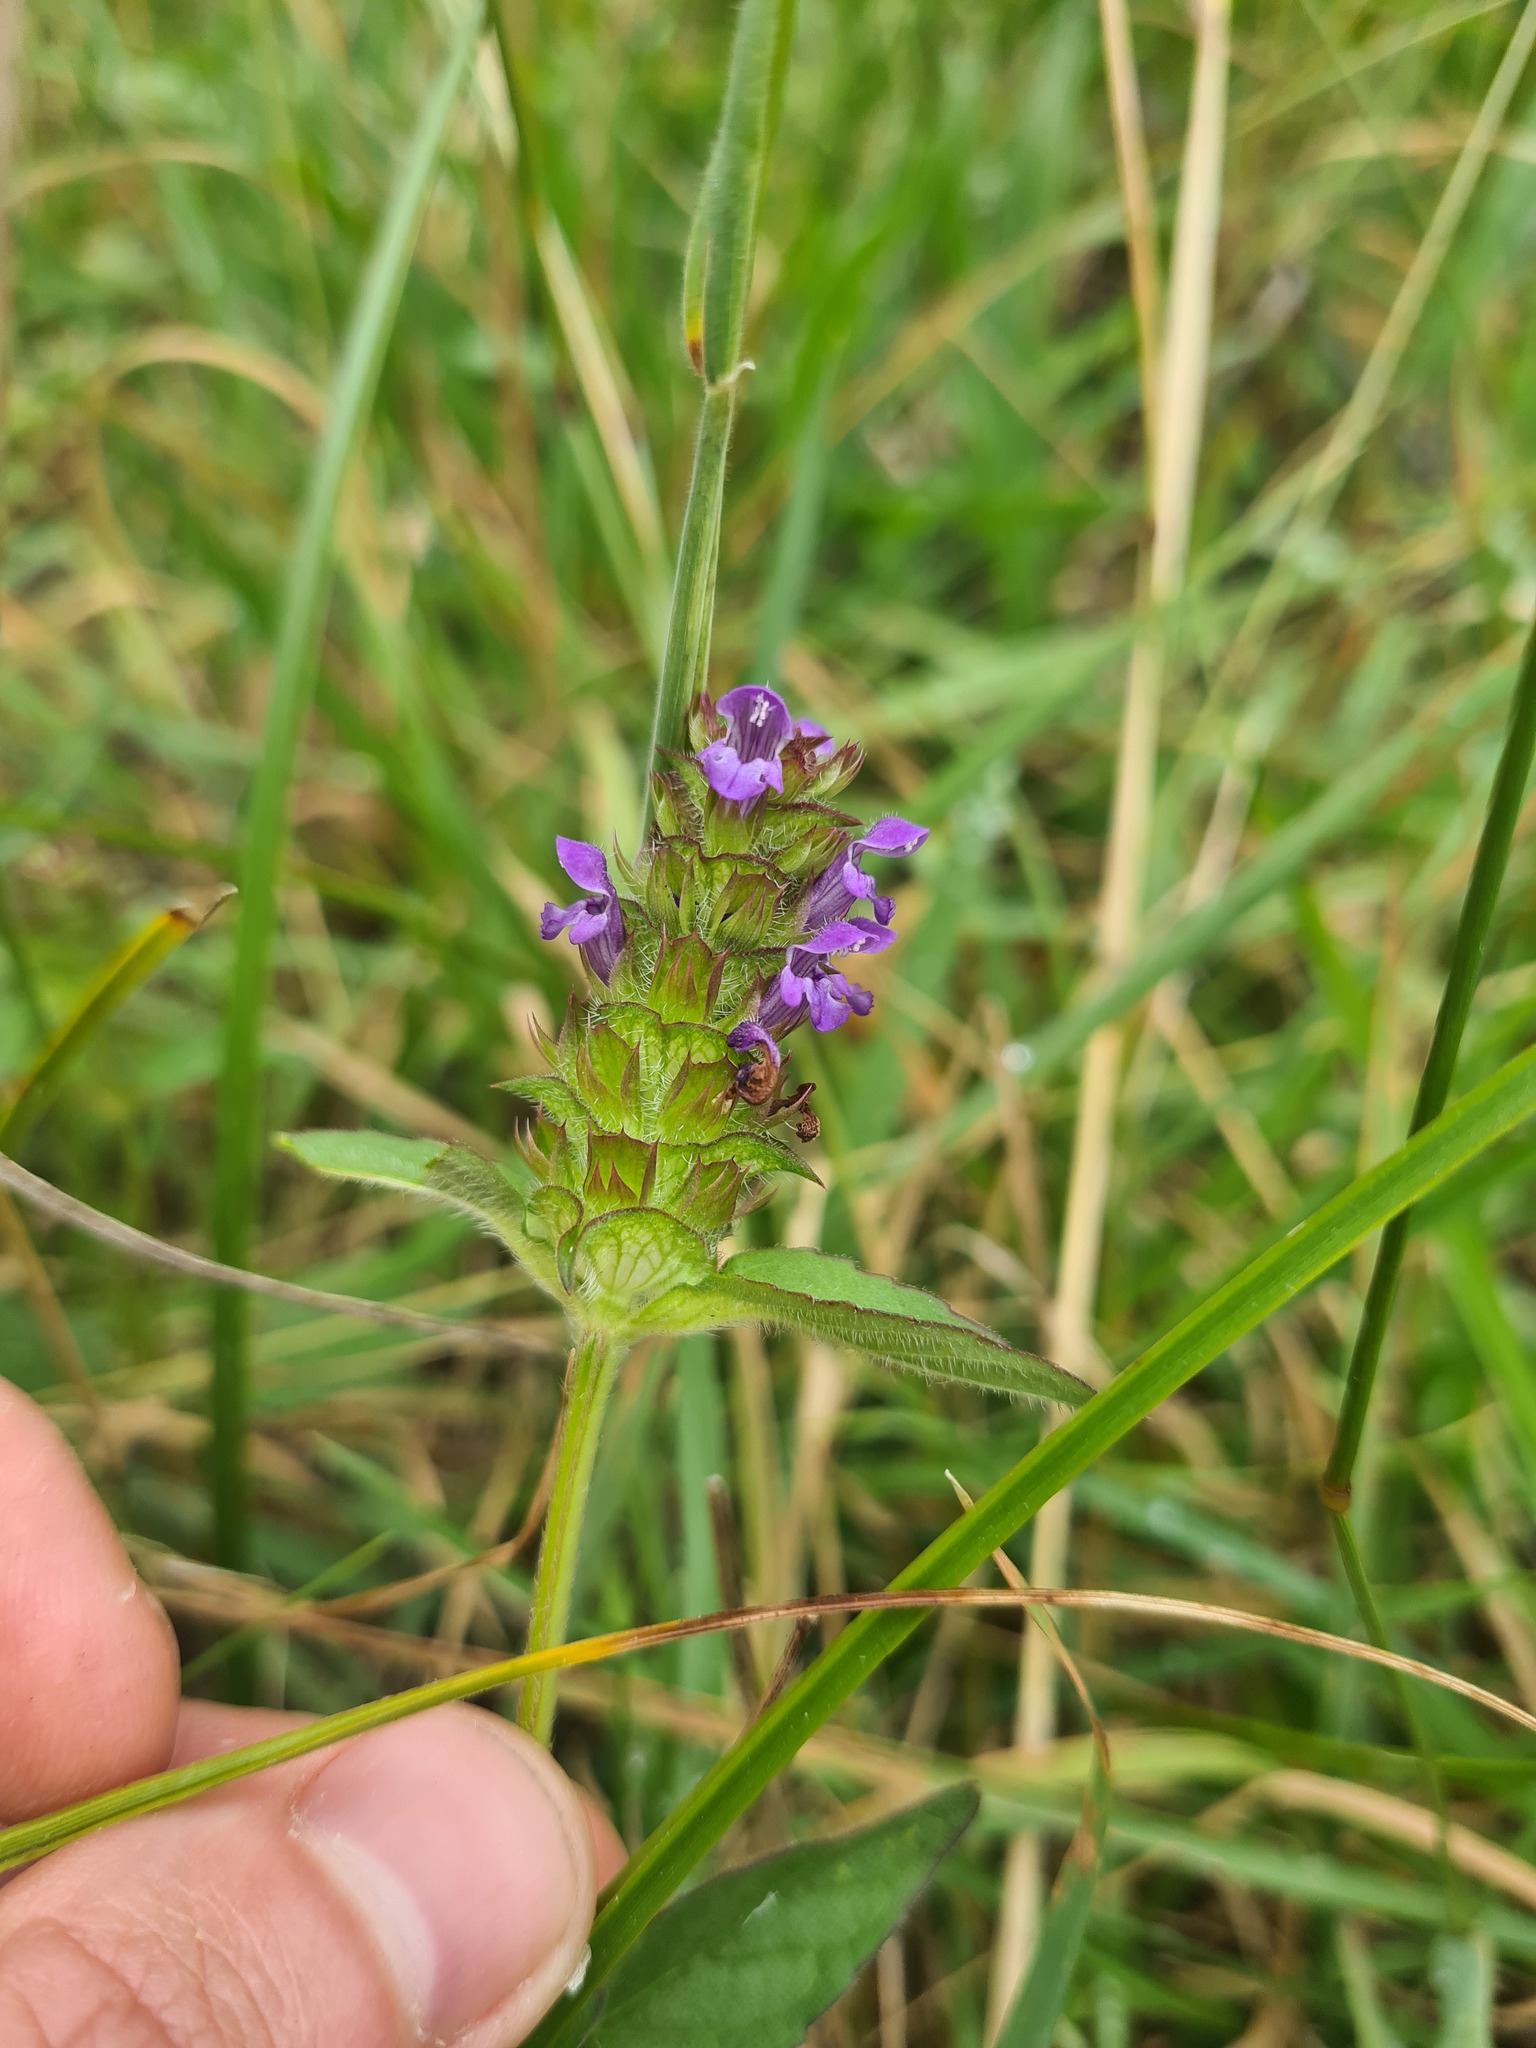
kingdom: Plantae
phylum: Tracheophyta
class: Magnoliopsida
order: Lamiales
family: Lamiaceae
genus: Prunella
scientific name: Prunella vulgaris
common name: Heal-all
